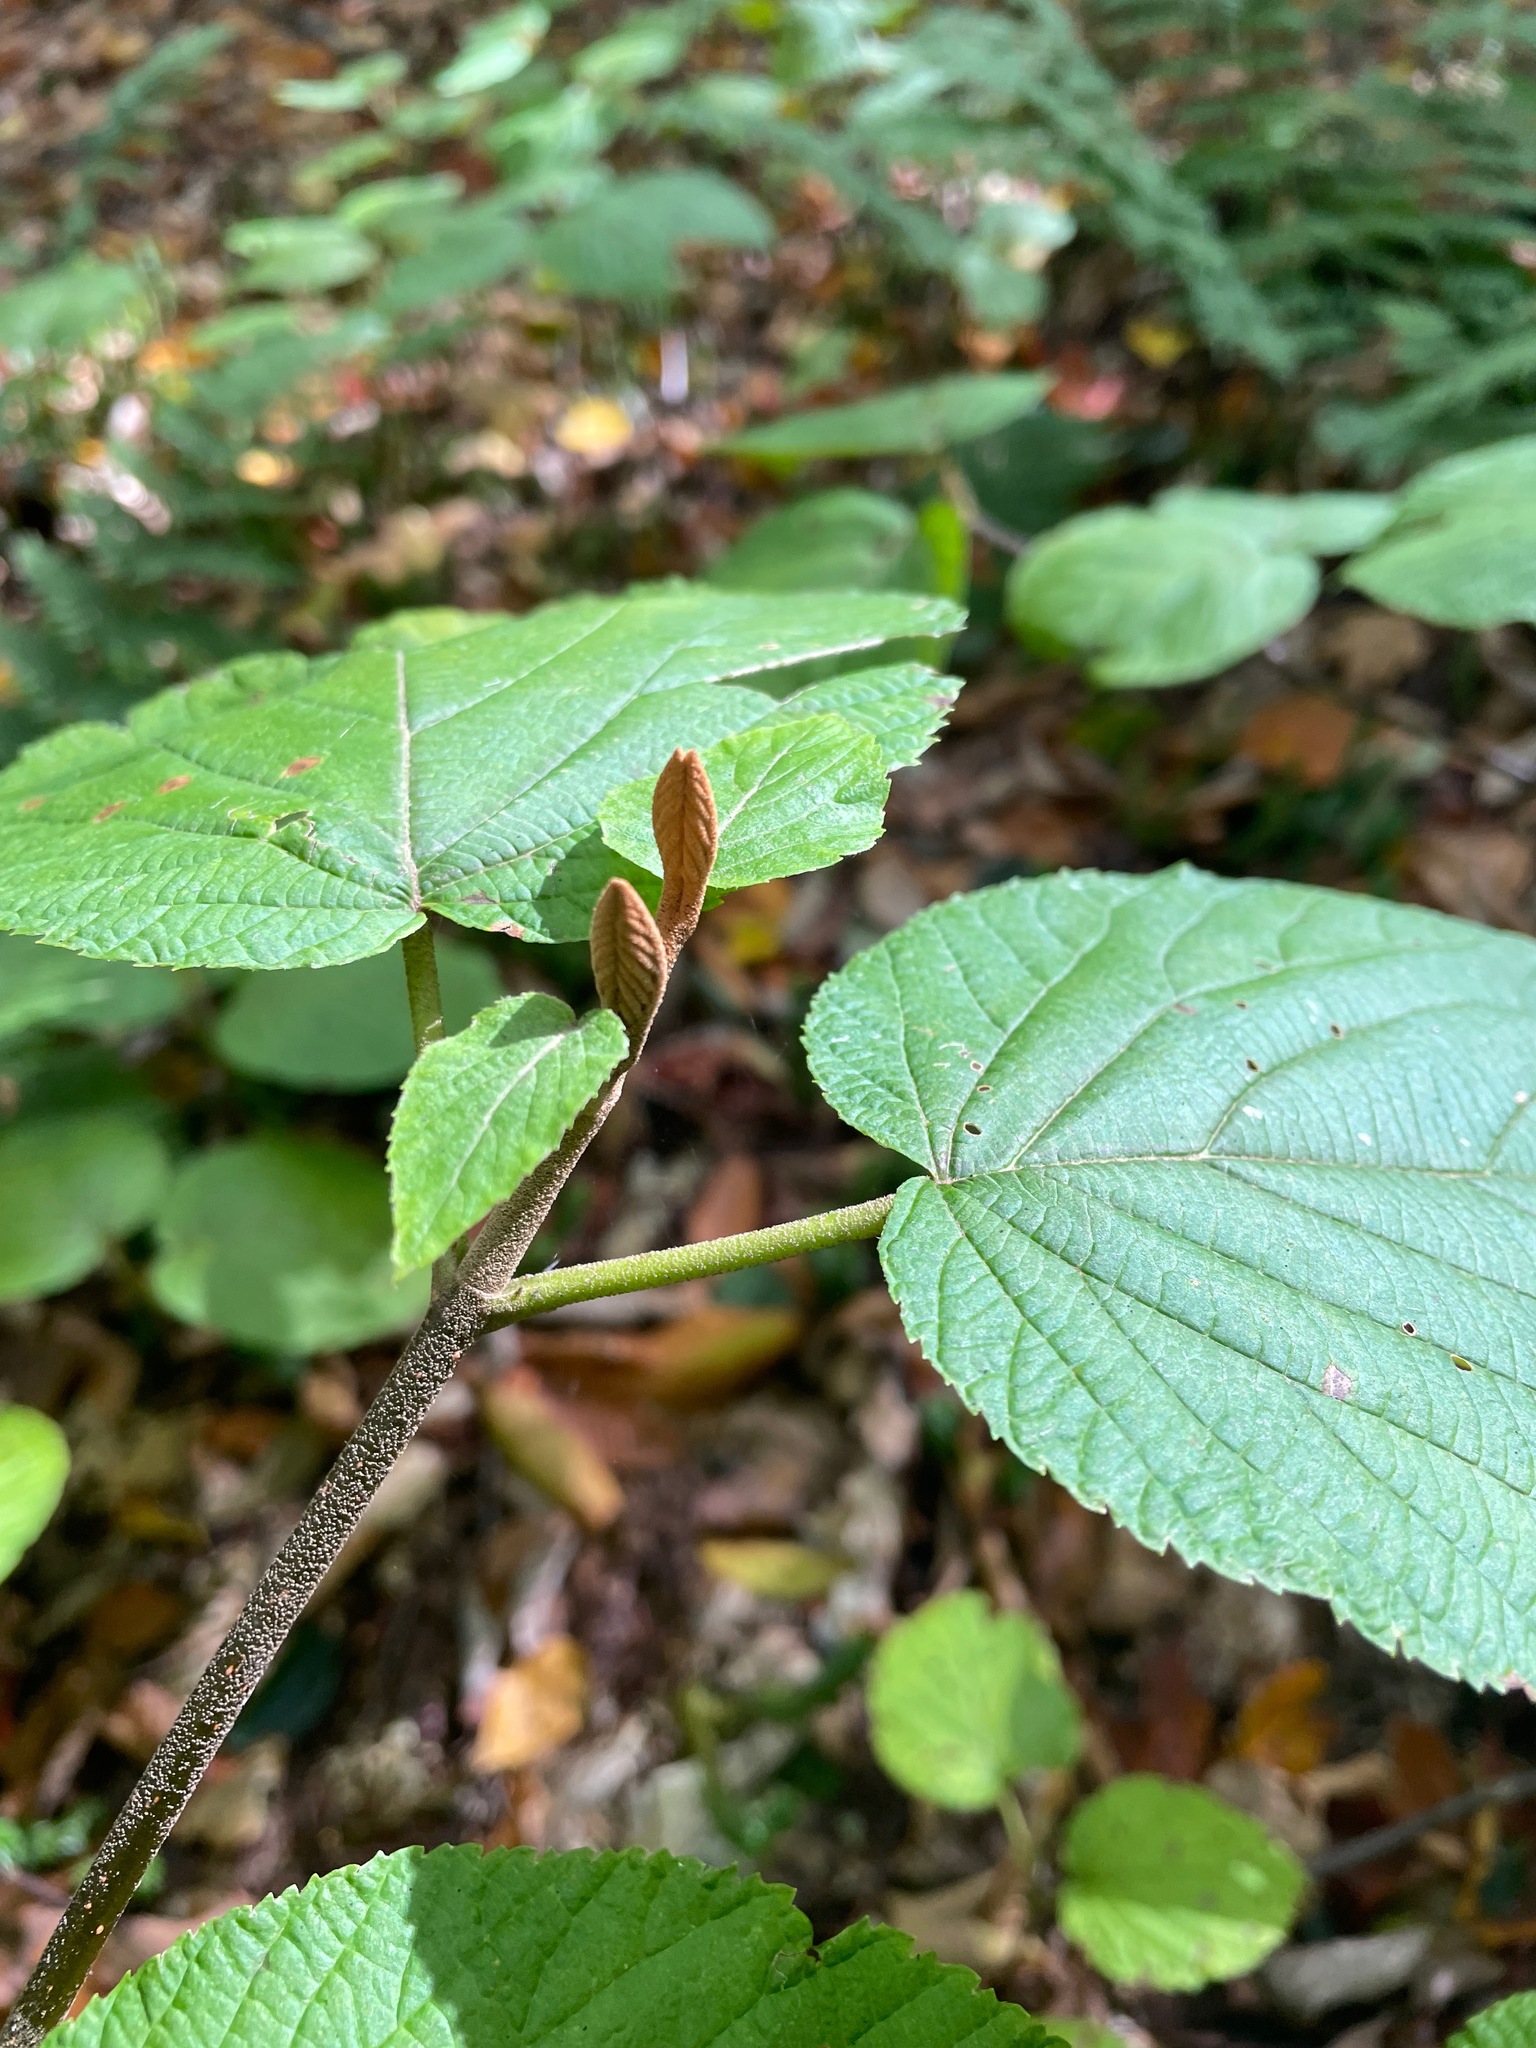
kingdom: Plantae
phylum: Tracheophyta
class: Magnoliopsida
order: Dipsacales
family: Viburnaceae
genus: Viburnum
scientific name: Viburnum lantanoides
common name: Hobblebush
